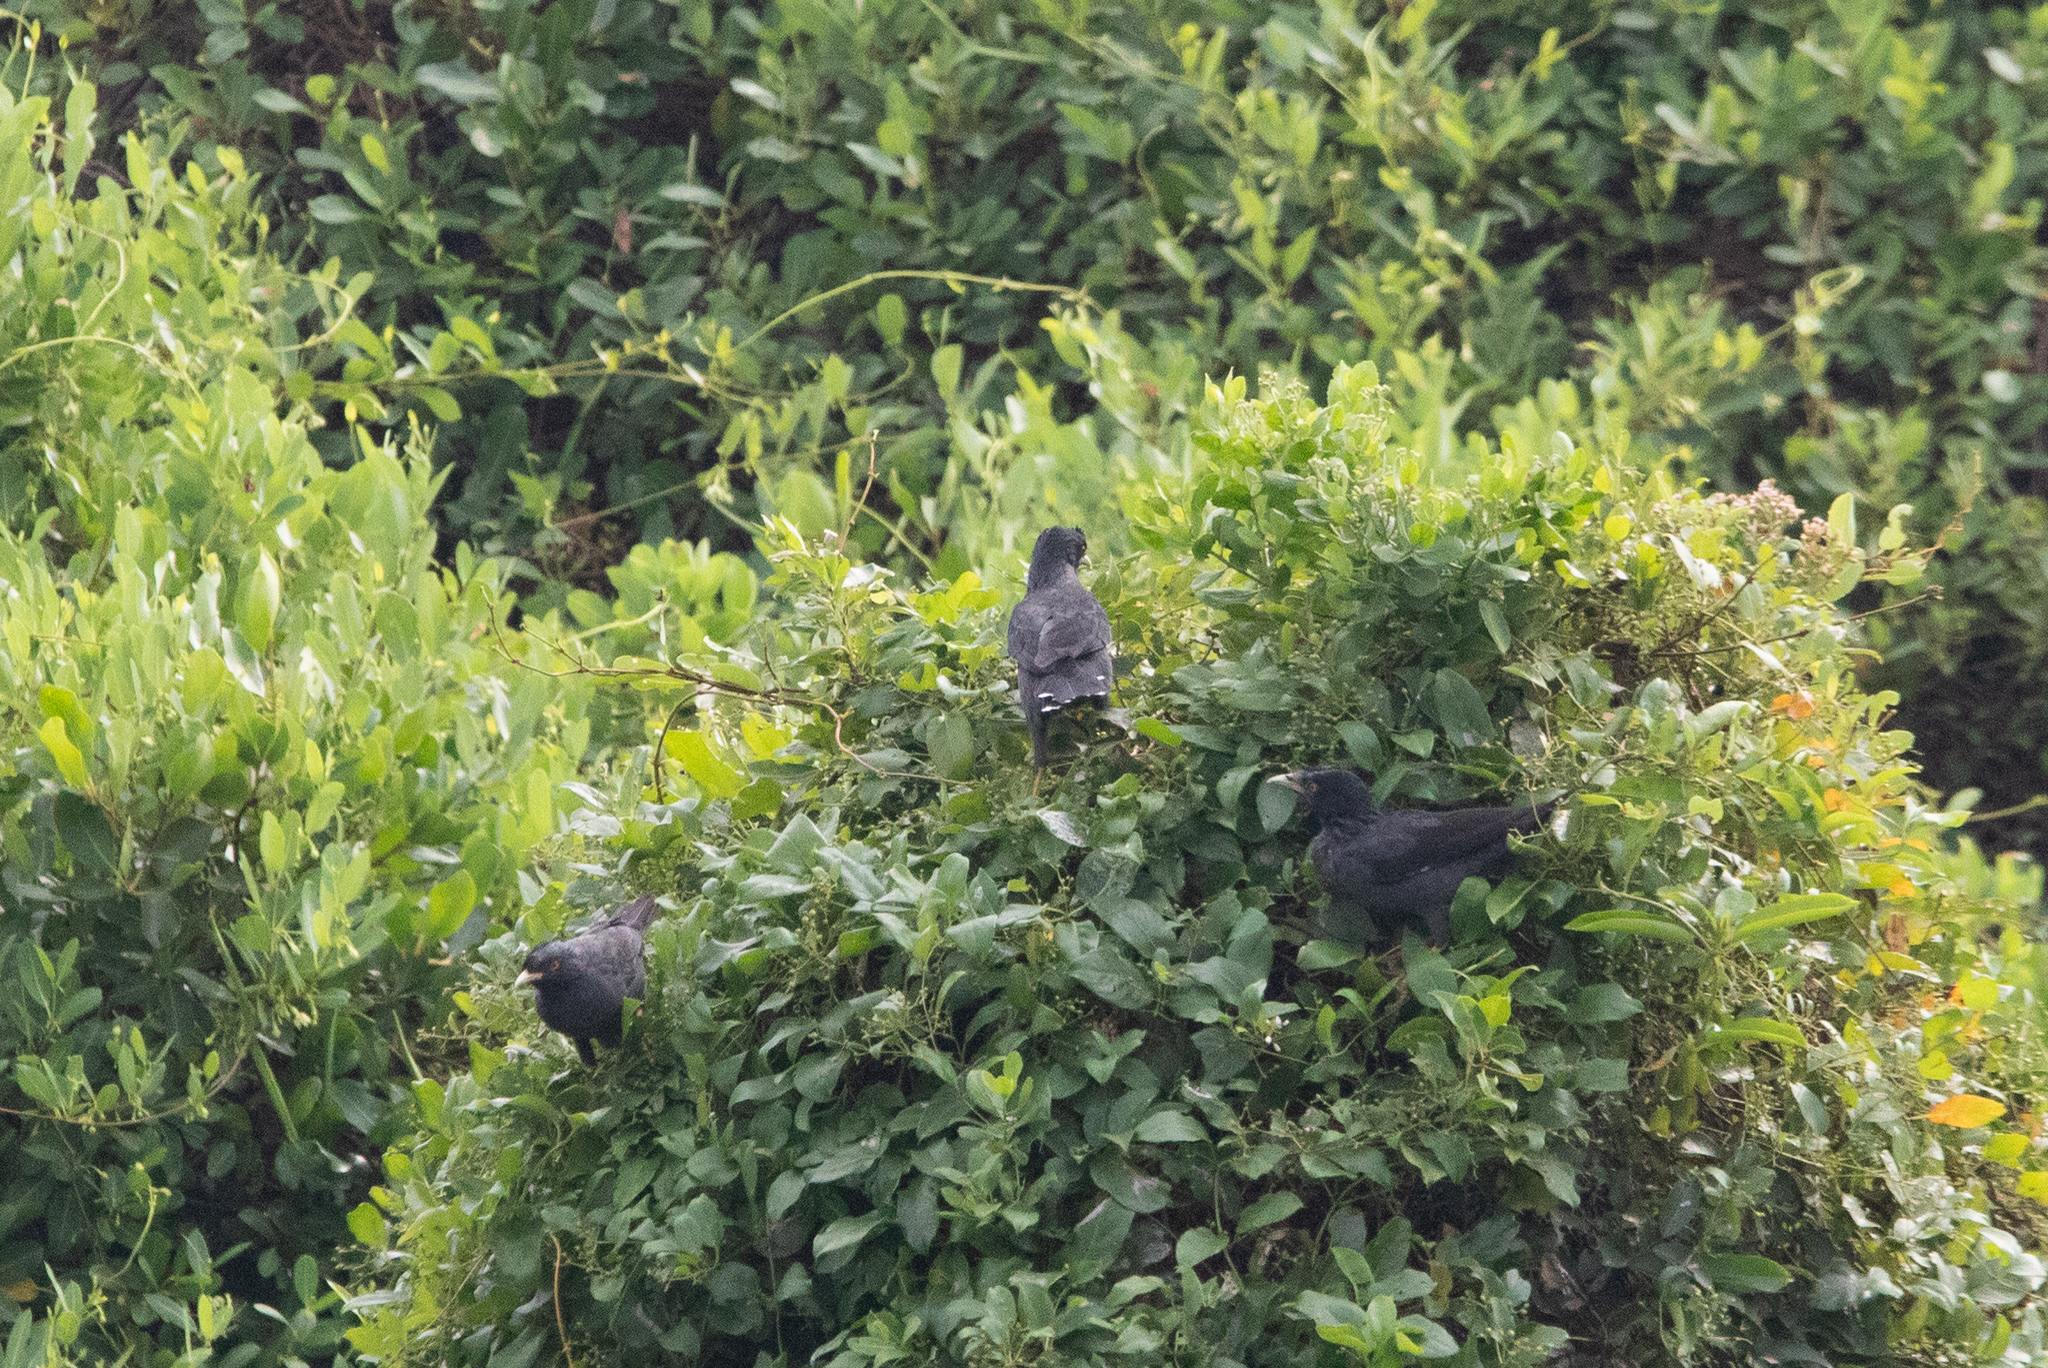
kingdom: Animalia
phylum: Chordata
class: Aves
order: Passeriformes
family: Sturnidae
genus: Acridotheres
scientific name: Acridotheres cristatellus
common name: Crested myna
